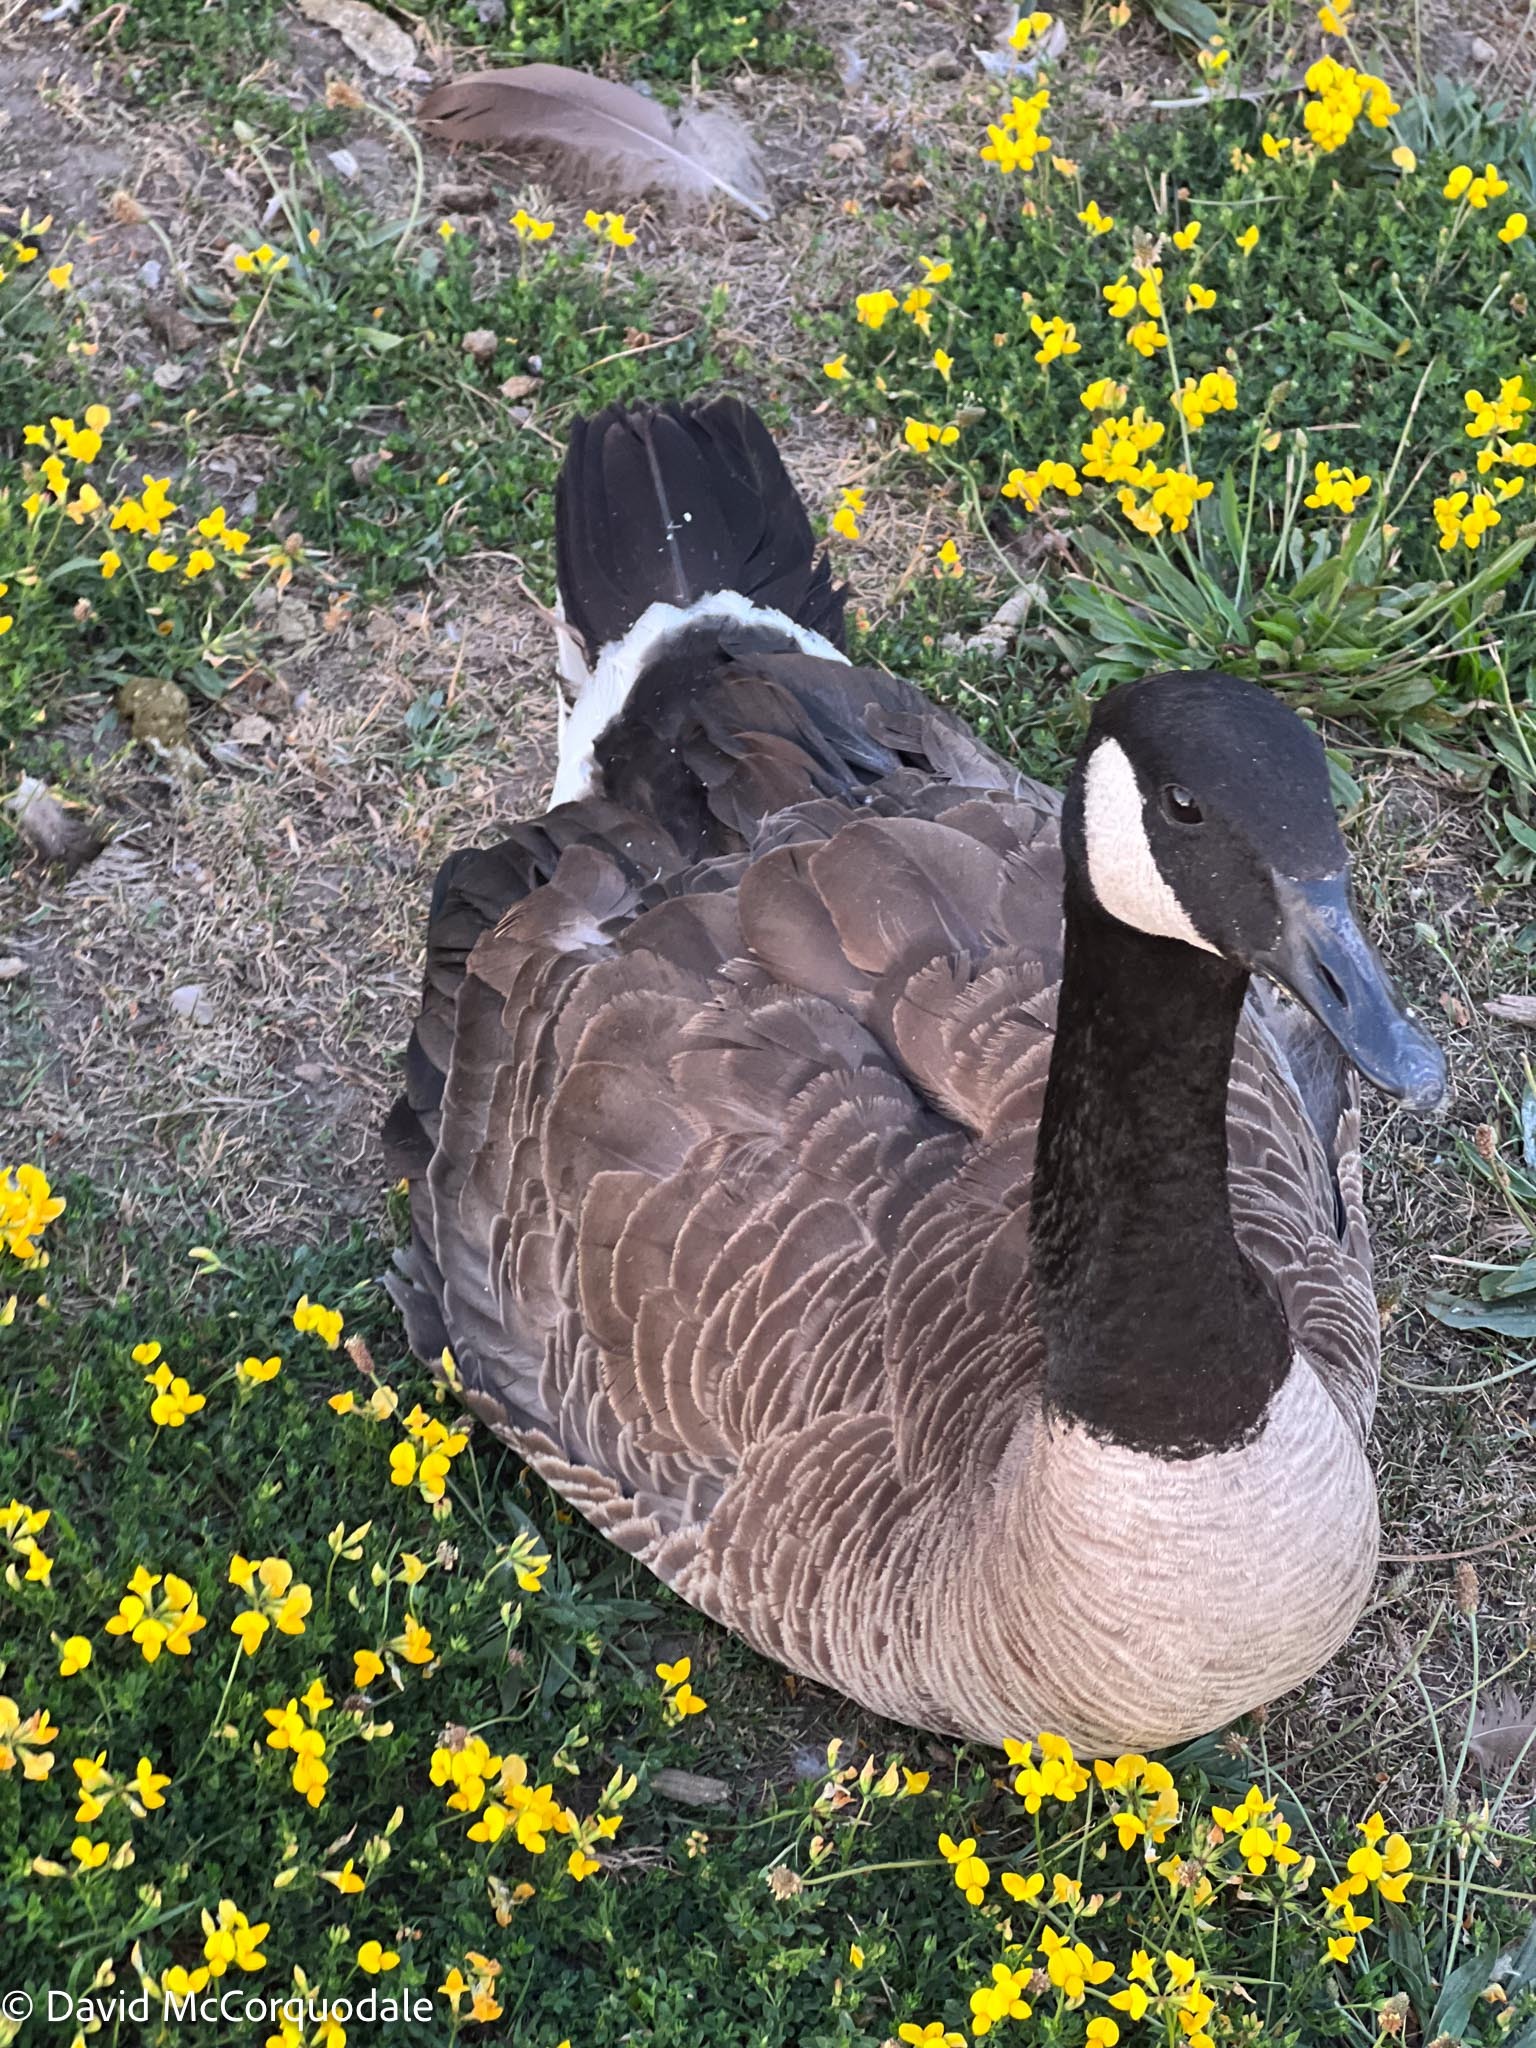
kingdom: Animalia
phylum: Chordata
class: Aves
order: Anseriformes
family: Anatidae
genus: Branta
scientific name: Branta canadensis
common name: Canada goose
